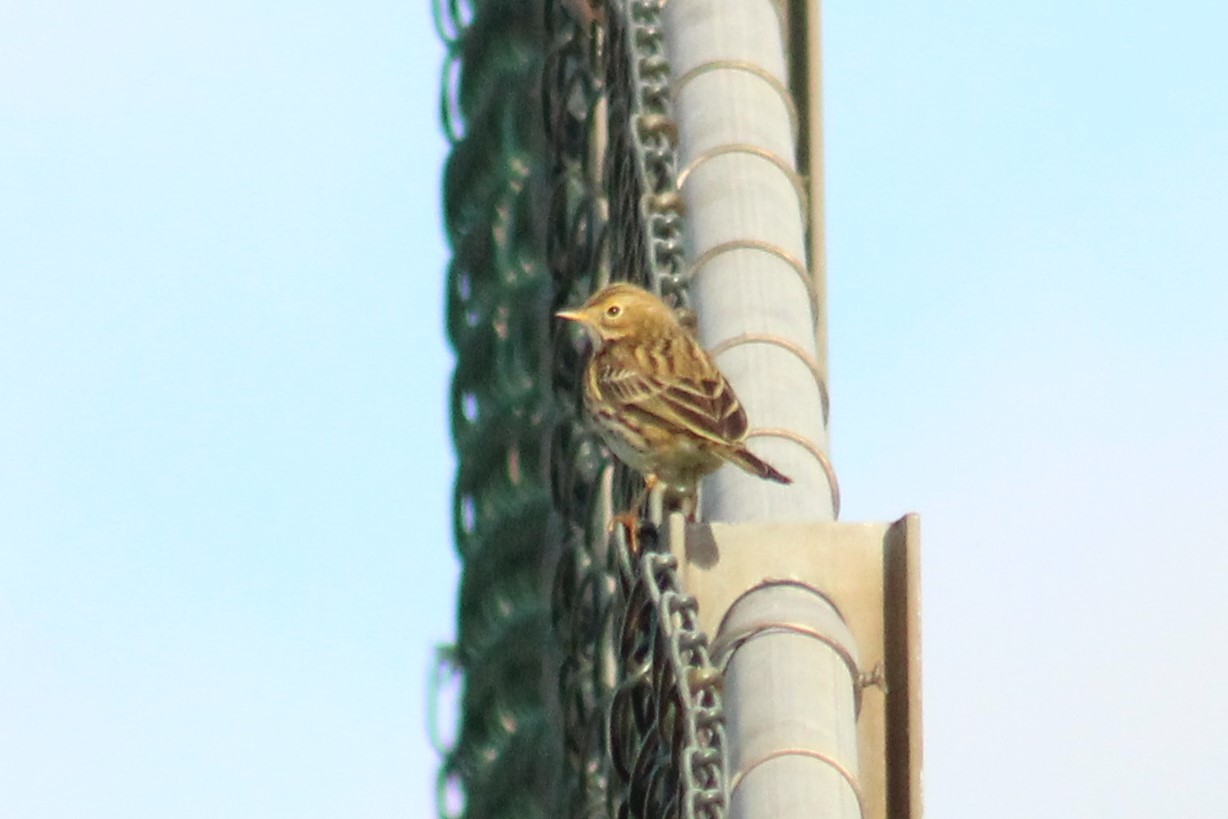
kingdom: Animalia
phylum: Chordata
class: Aves
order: Passeriformes
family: Motacillidae
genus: Anthus
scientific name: Anthus pratensis
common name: Meadow pipit
